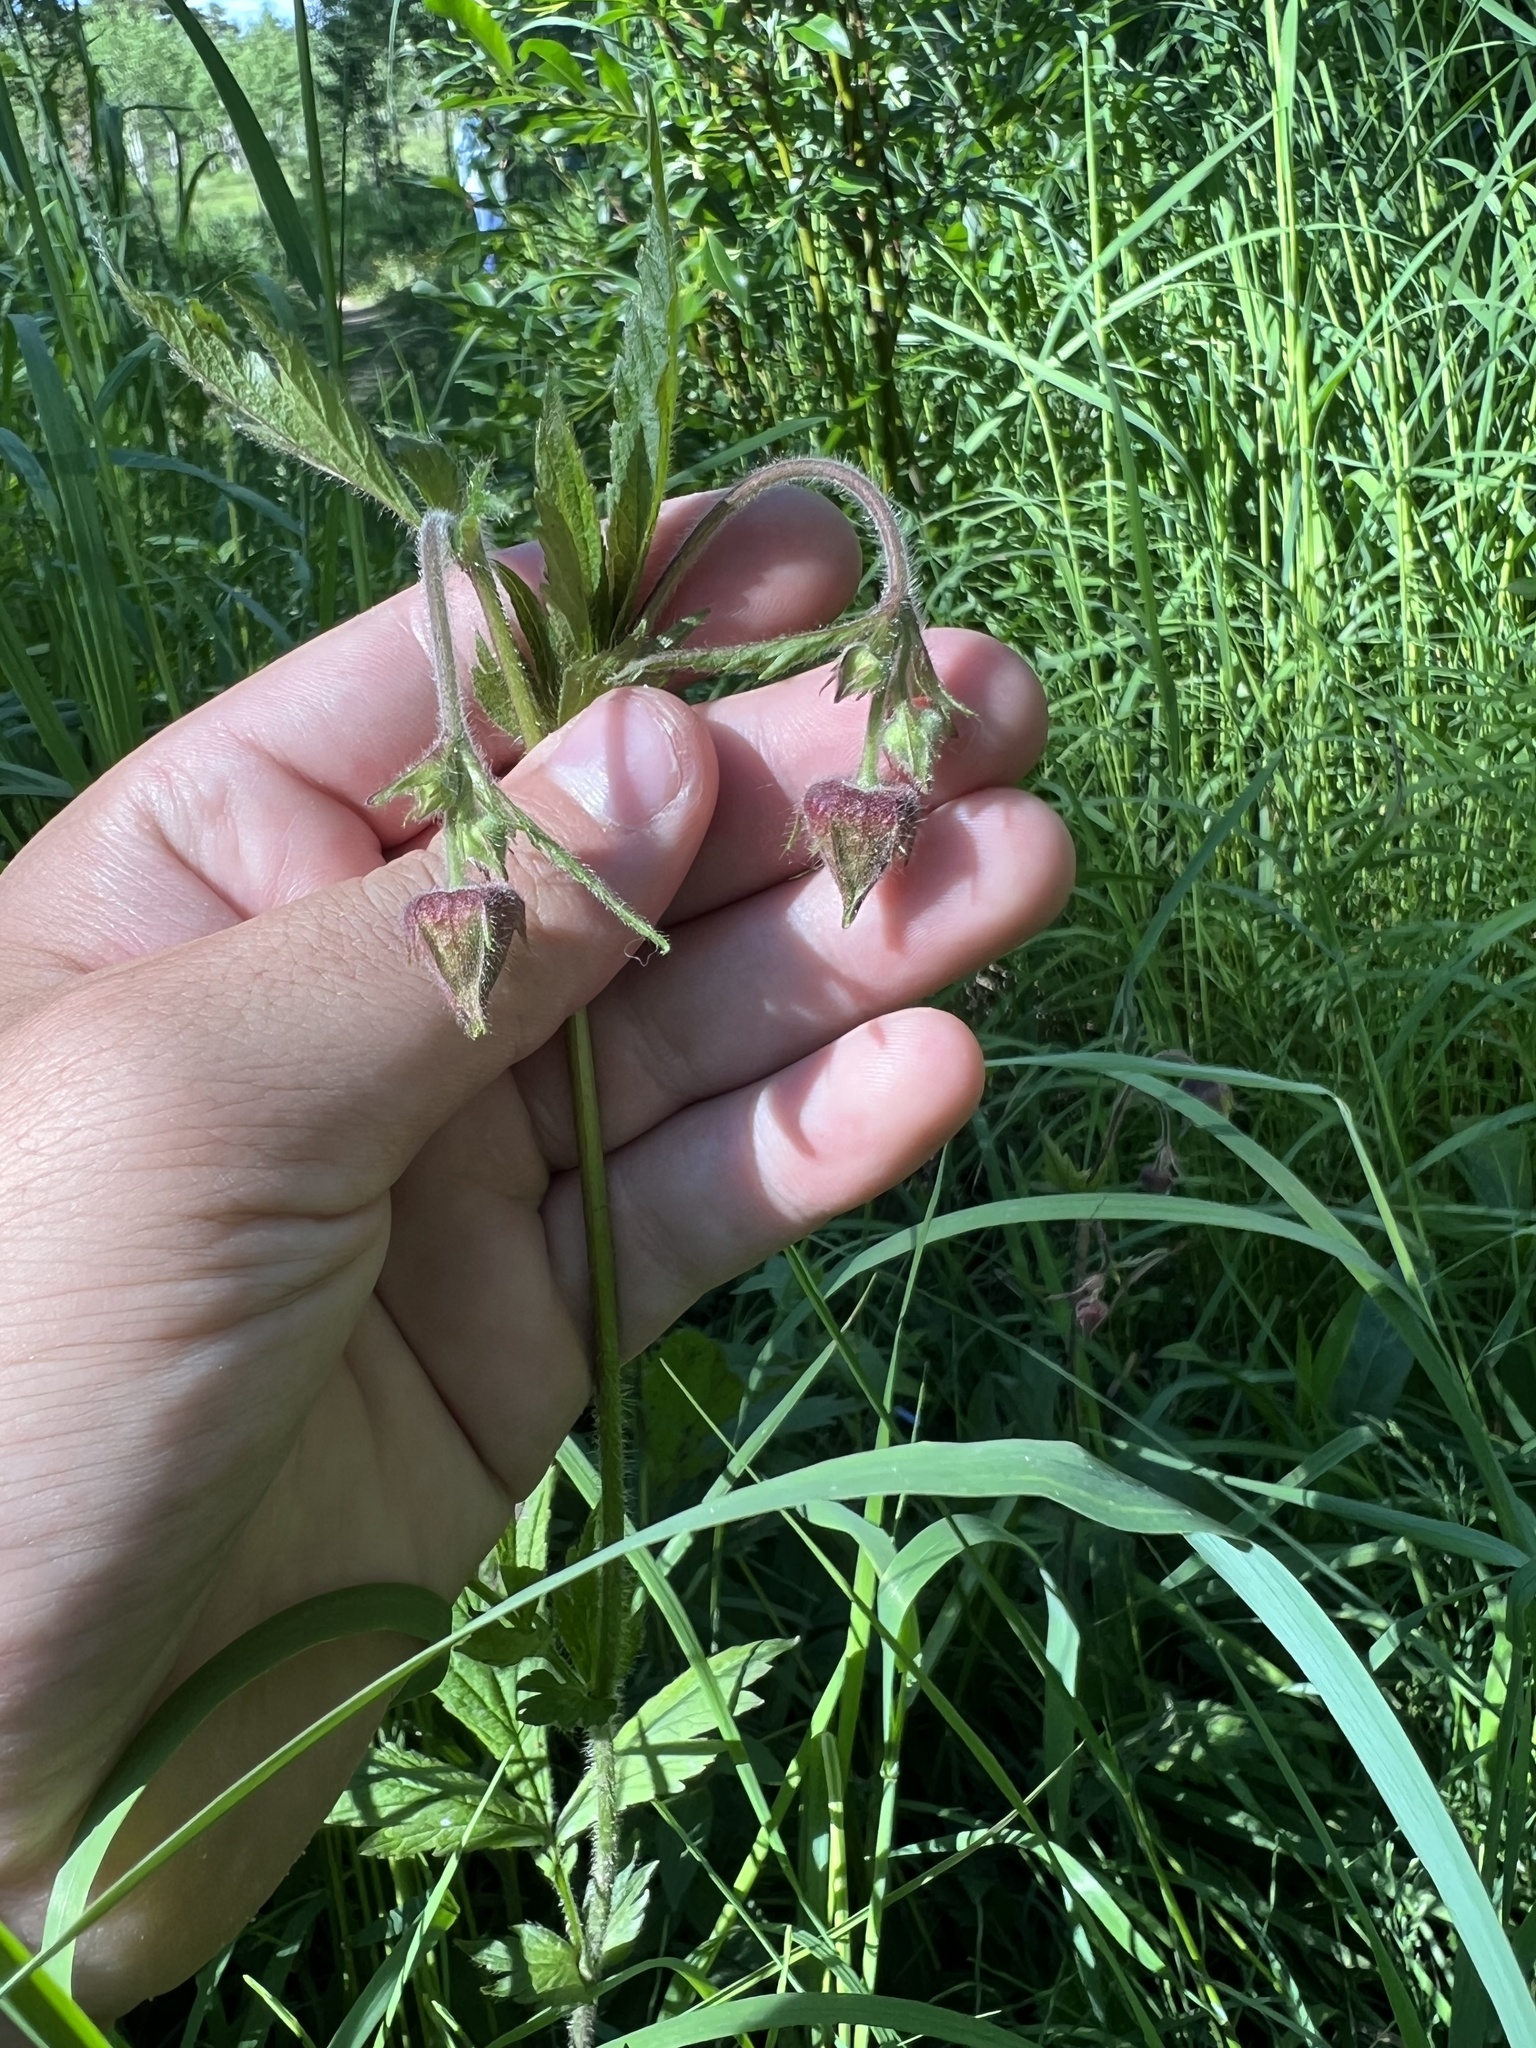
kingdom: Plantae
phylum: Tracheophyta
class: Magnoliopsida
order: Rosales
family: Rosaceae
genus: Geum
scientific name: Geum rivale
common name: Water avens
